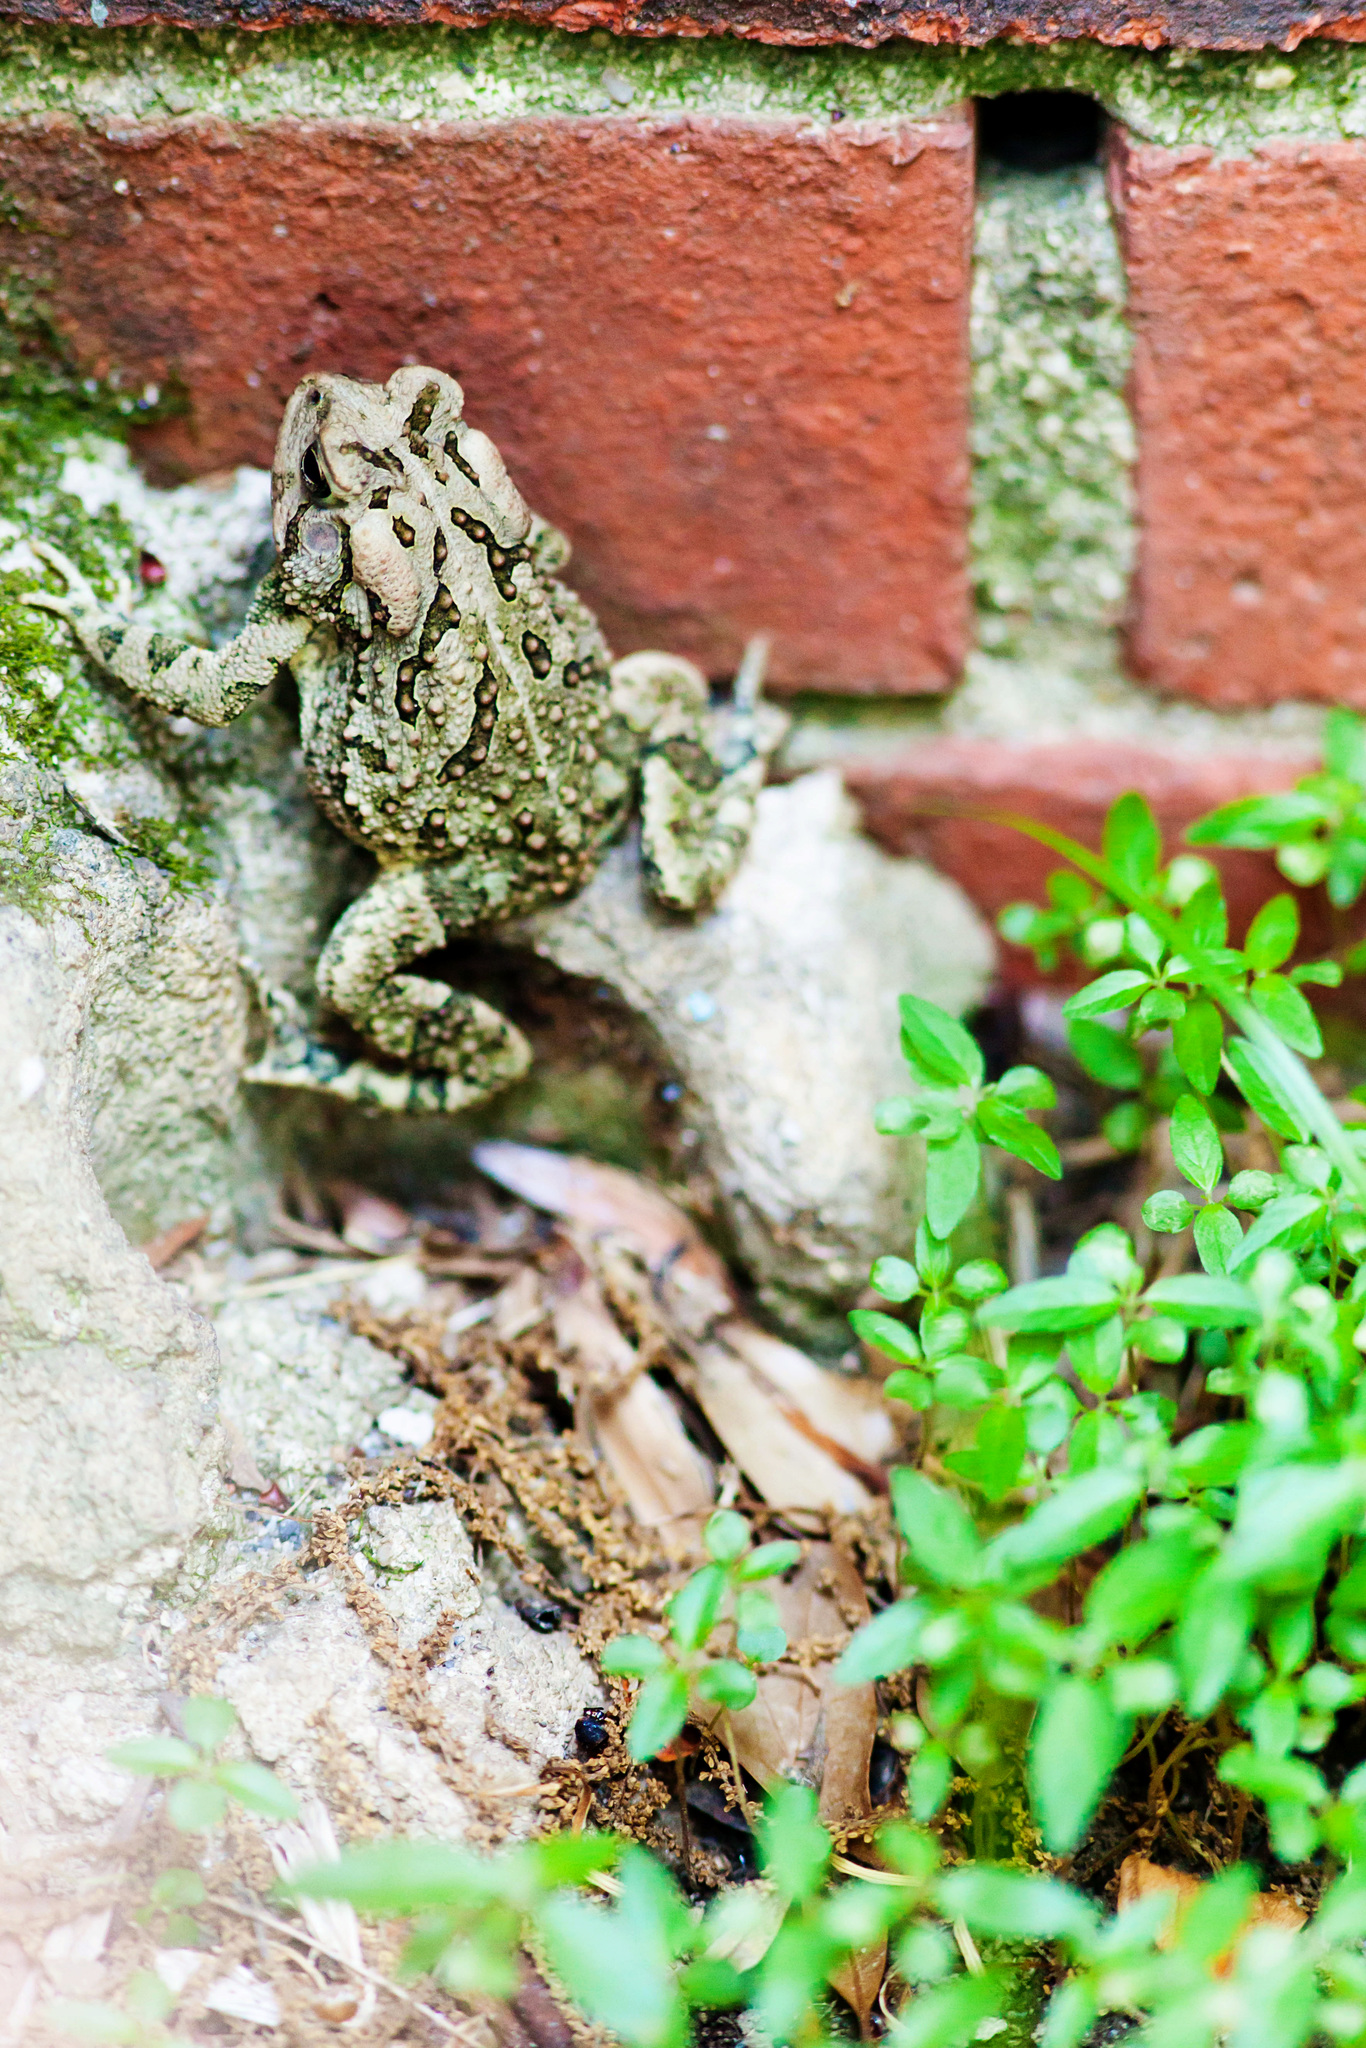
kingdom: Animalia
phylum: Chordata
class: Amphibia
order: Anura
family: Bufonidae
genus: Anaxyrus
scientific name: Anaxyrus fowleri
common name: Fowler's toad
